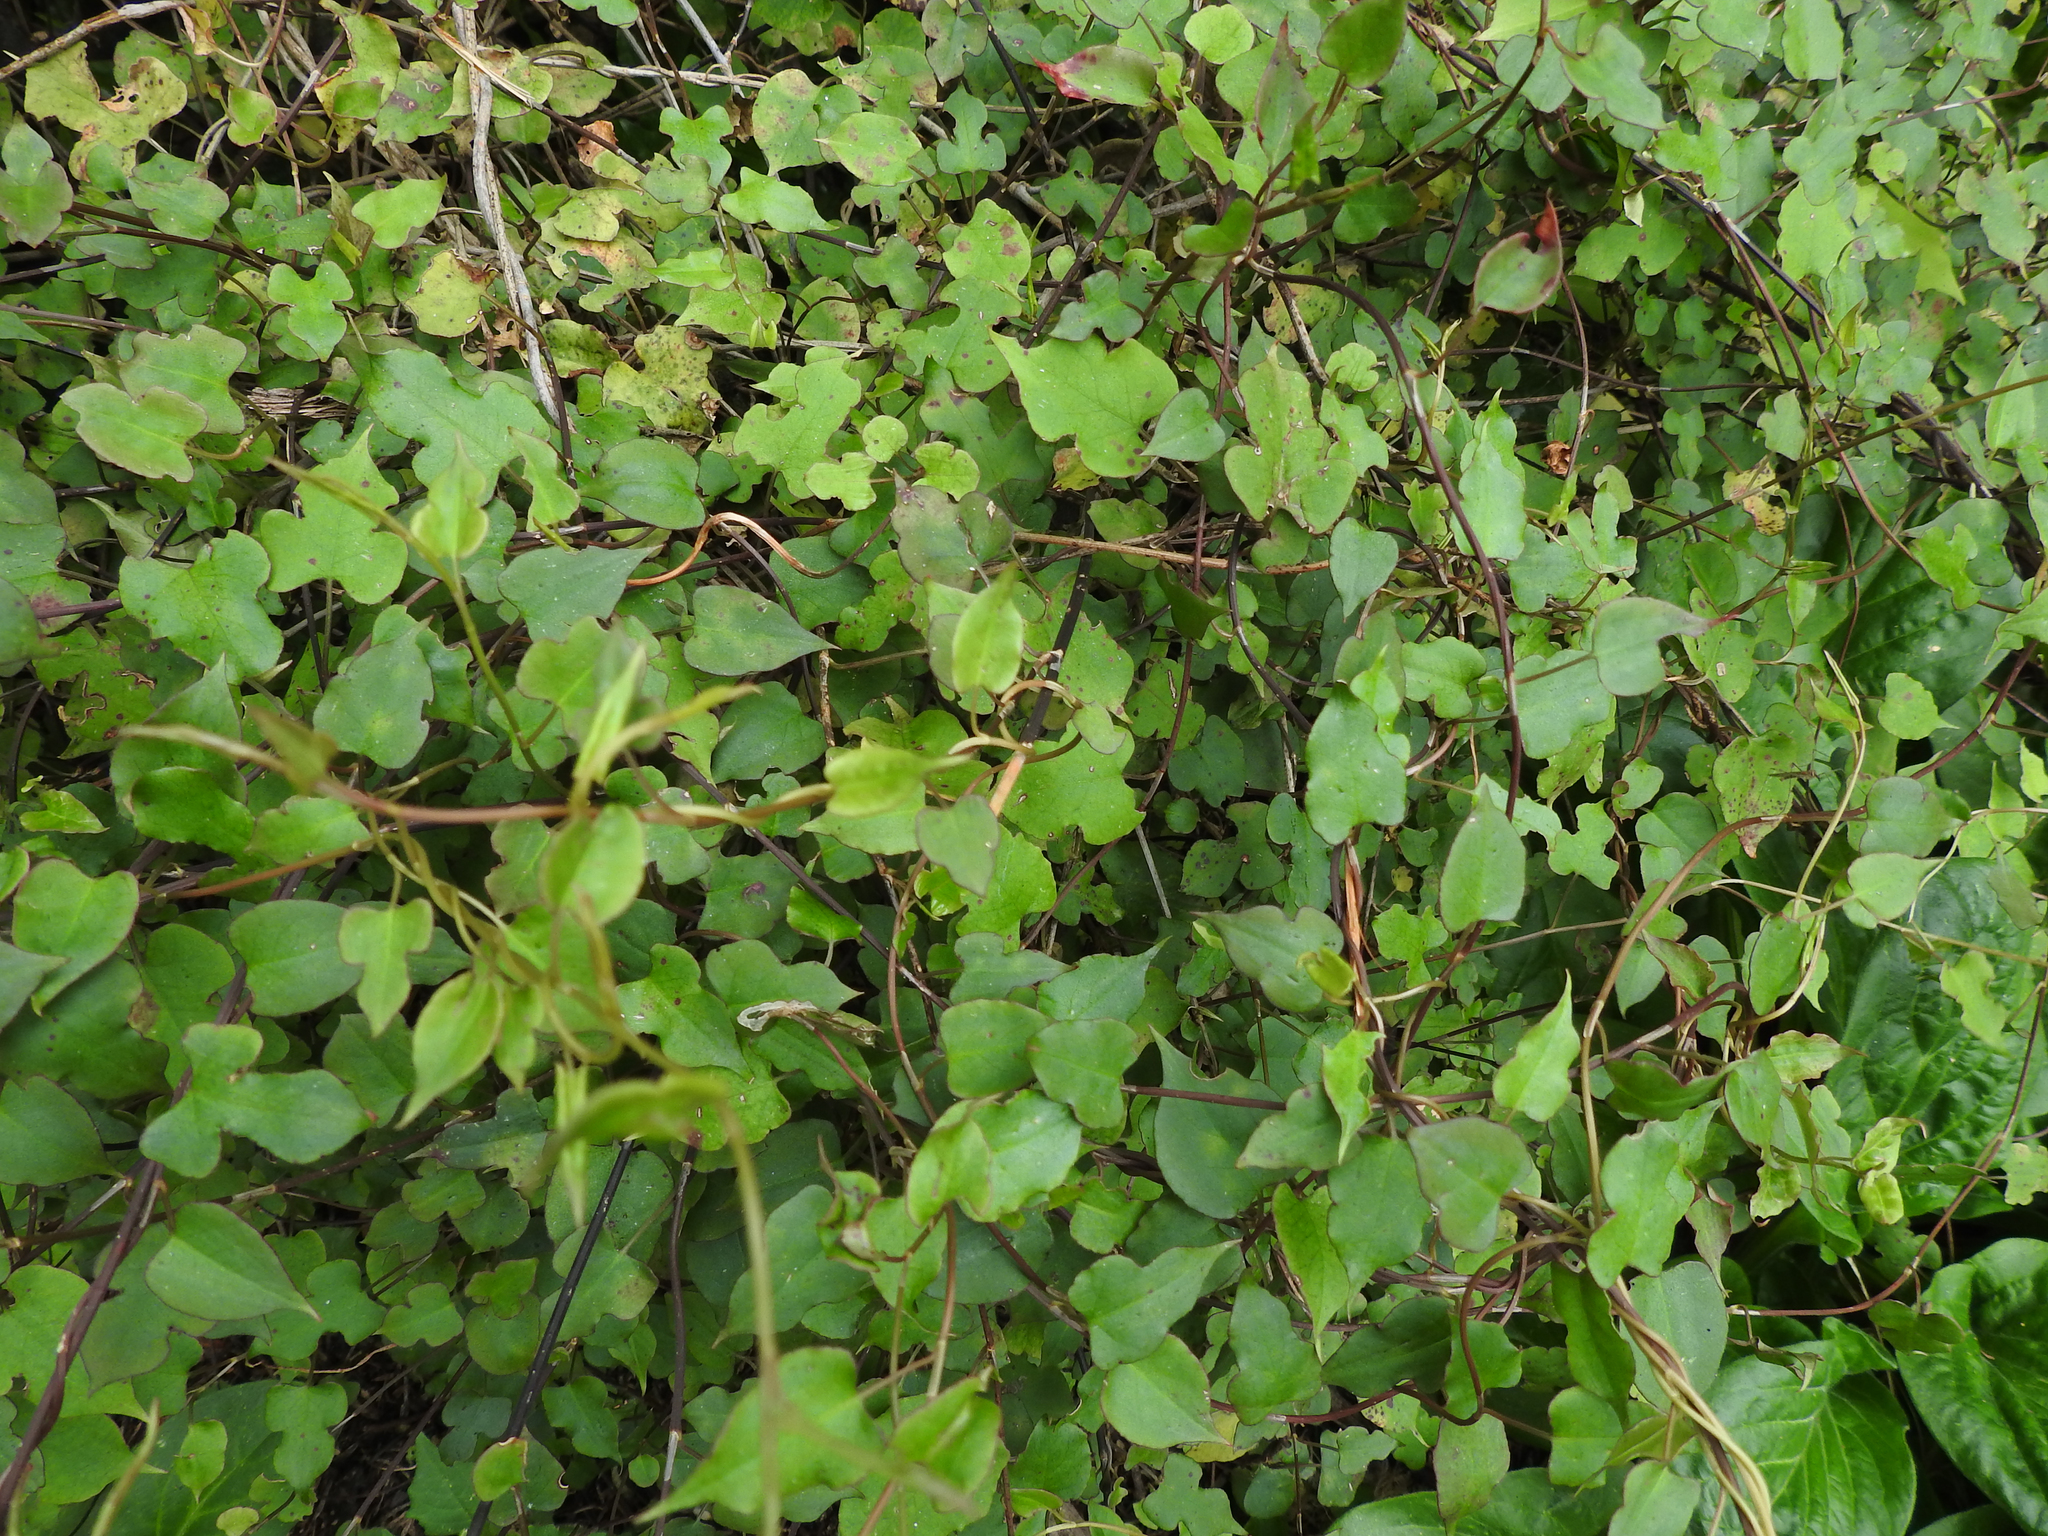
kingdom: Plantae
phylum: Tracheophyta
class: Magnoliopsida
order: Caryophyllales
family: Polygonaceae
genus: Muehlenbeckia
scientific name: Muehlenbeckia australis
